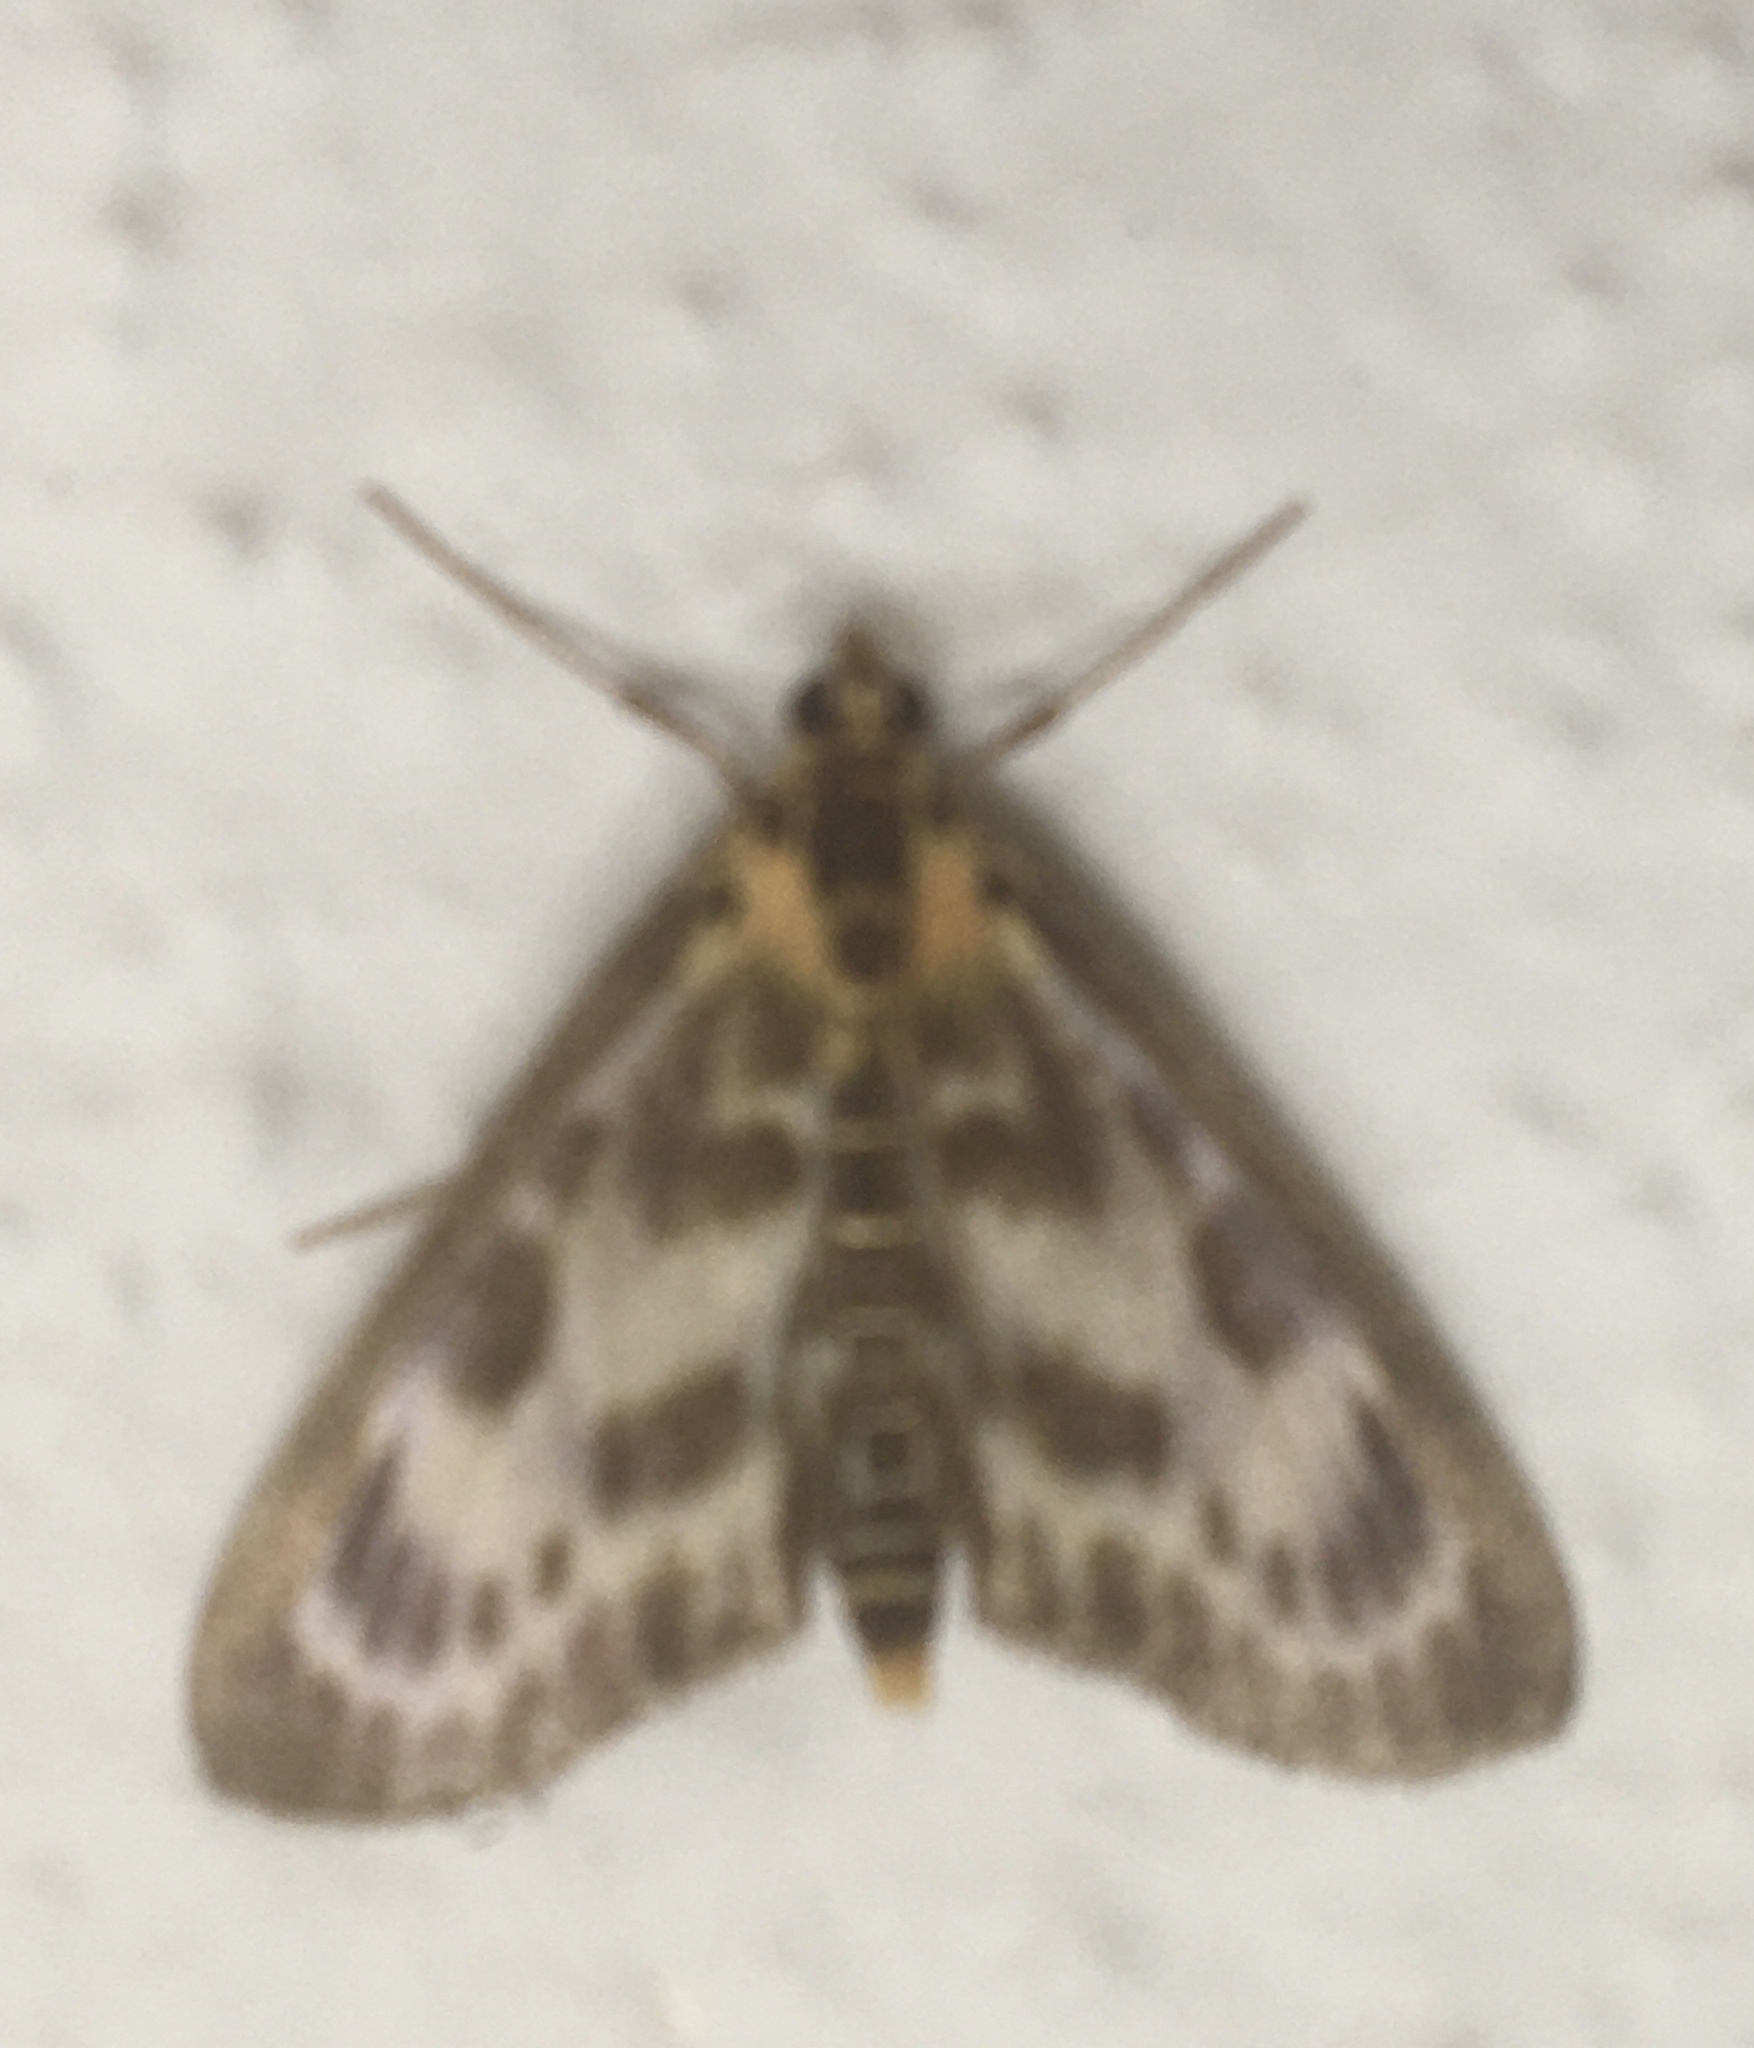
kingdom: Animalia
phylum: Arthropoda
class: Insecta
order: Lepidoptera
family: Crambidae
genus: Anania
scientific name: Anania hortulata
